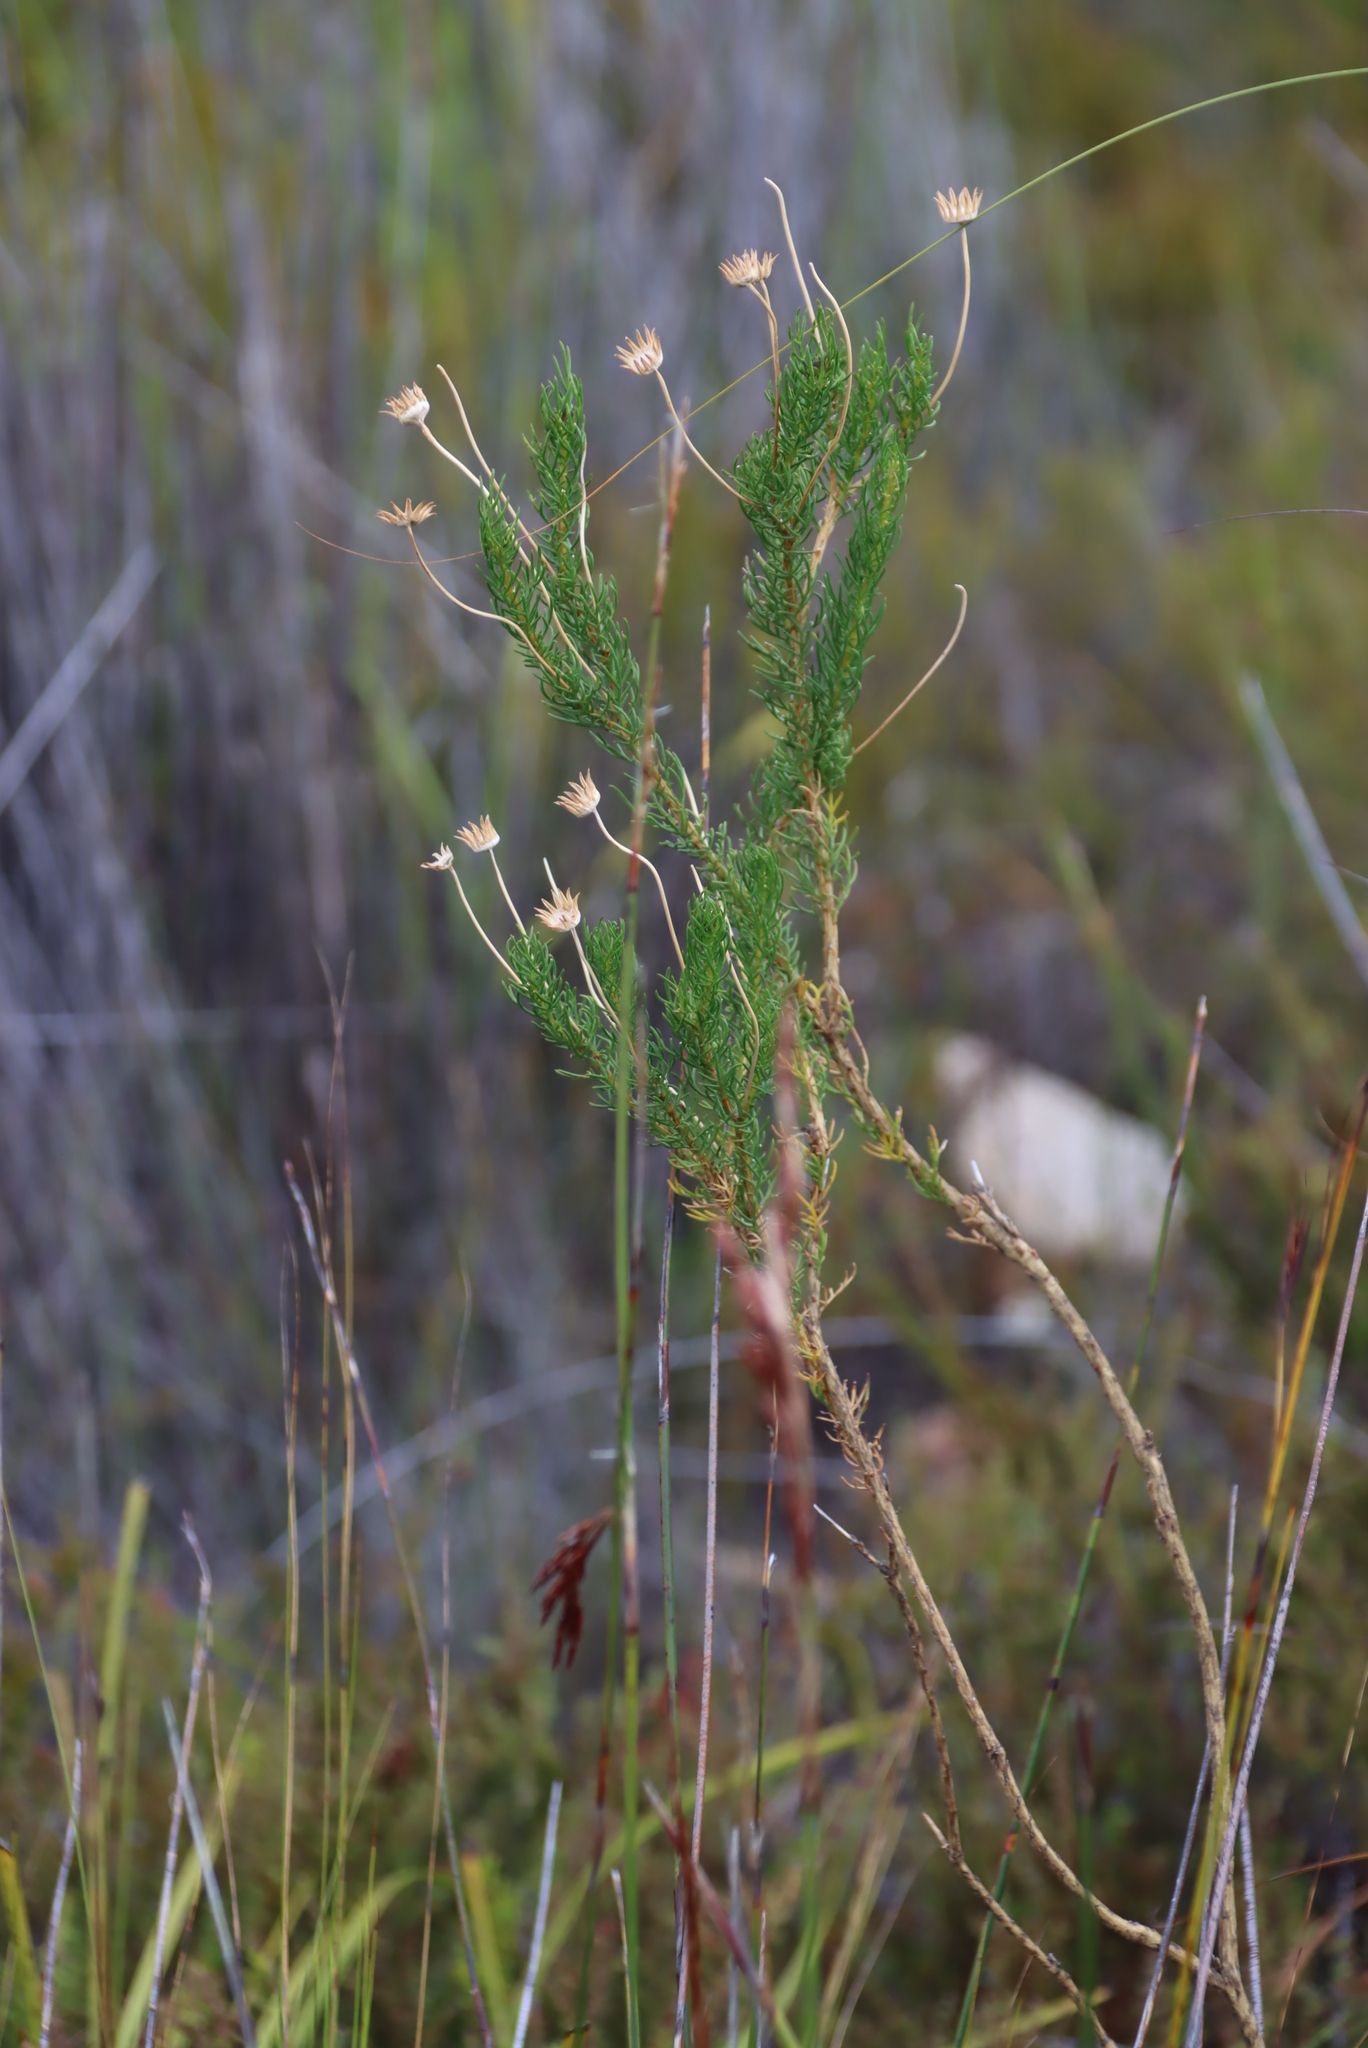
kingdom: Plantae
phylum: Tracheophyta
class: Magnoliopsida
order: Asterales
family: Asteraceae
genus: Euryops
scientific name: Euryops abrotanifolius
